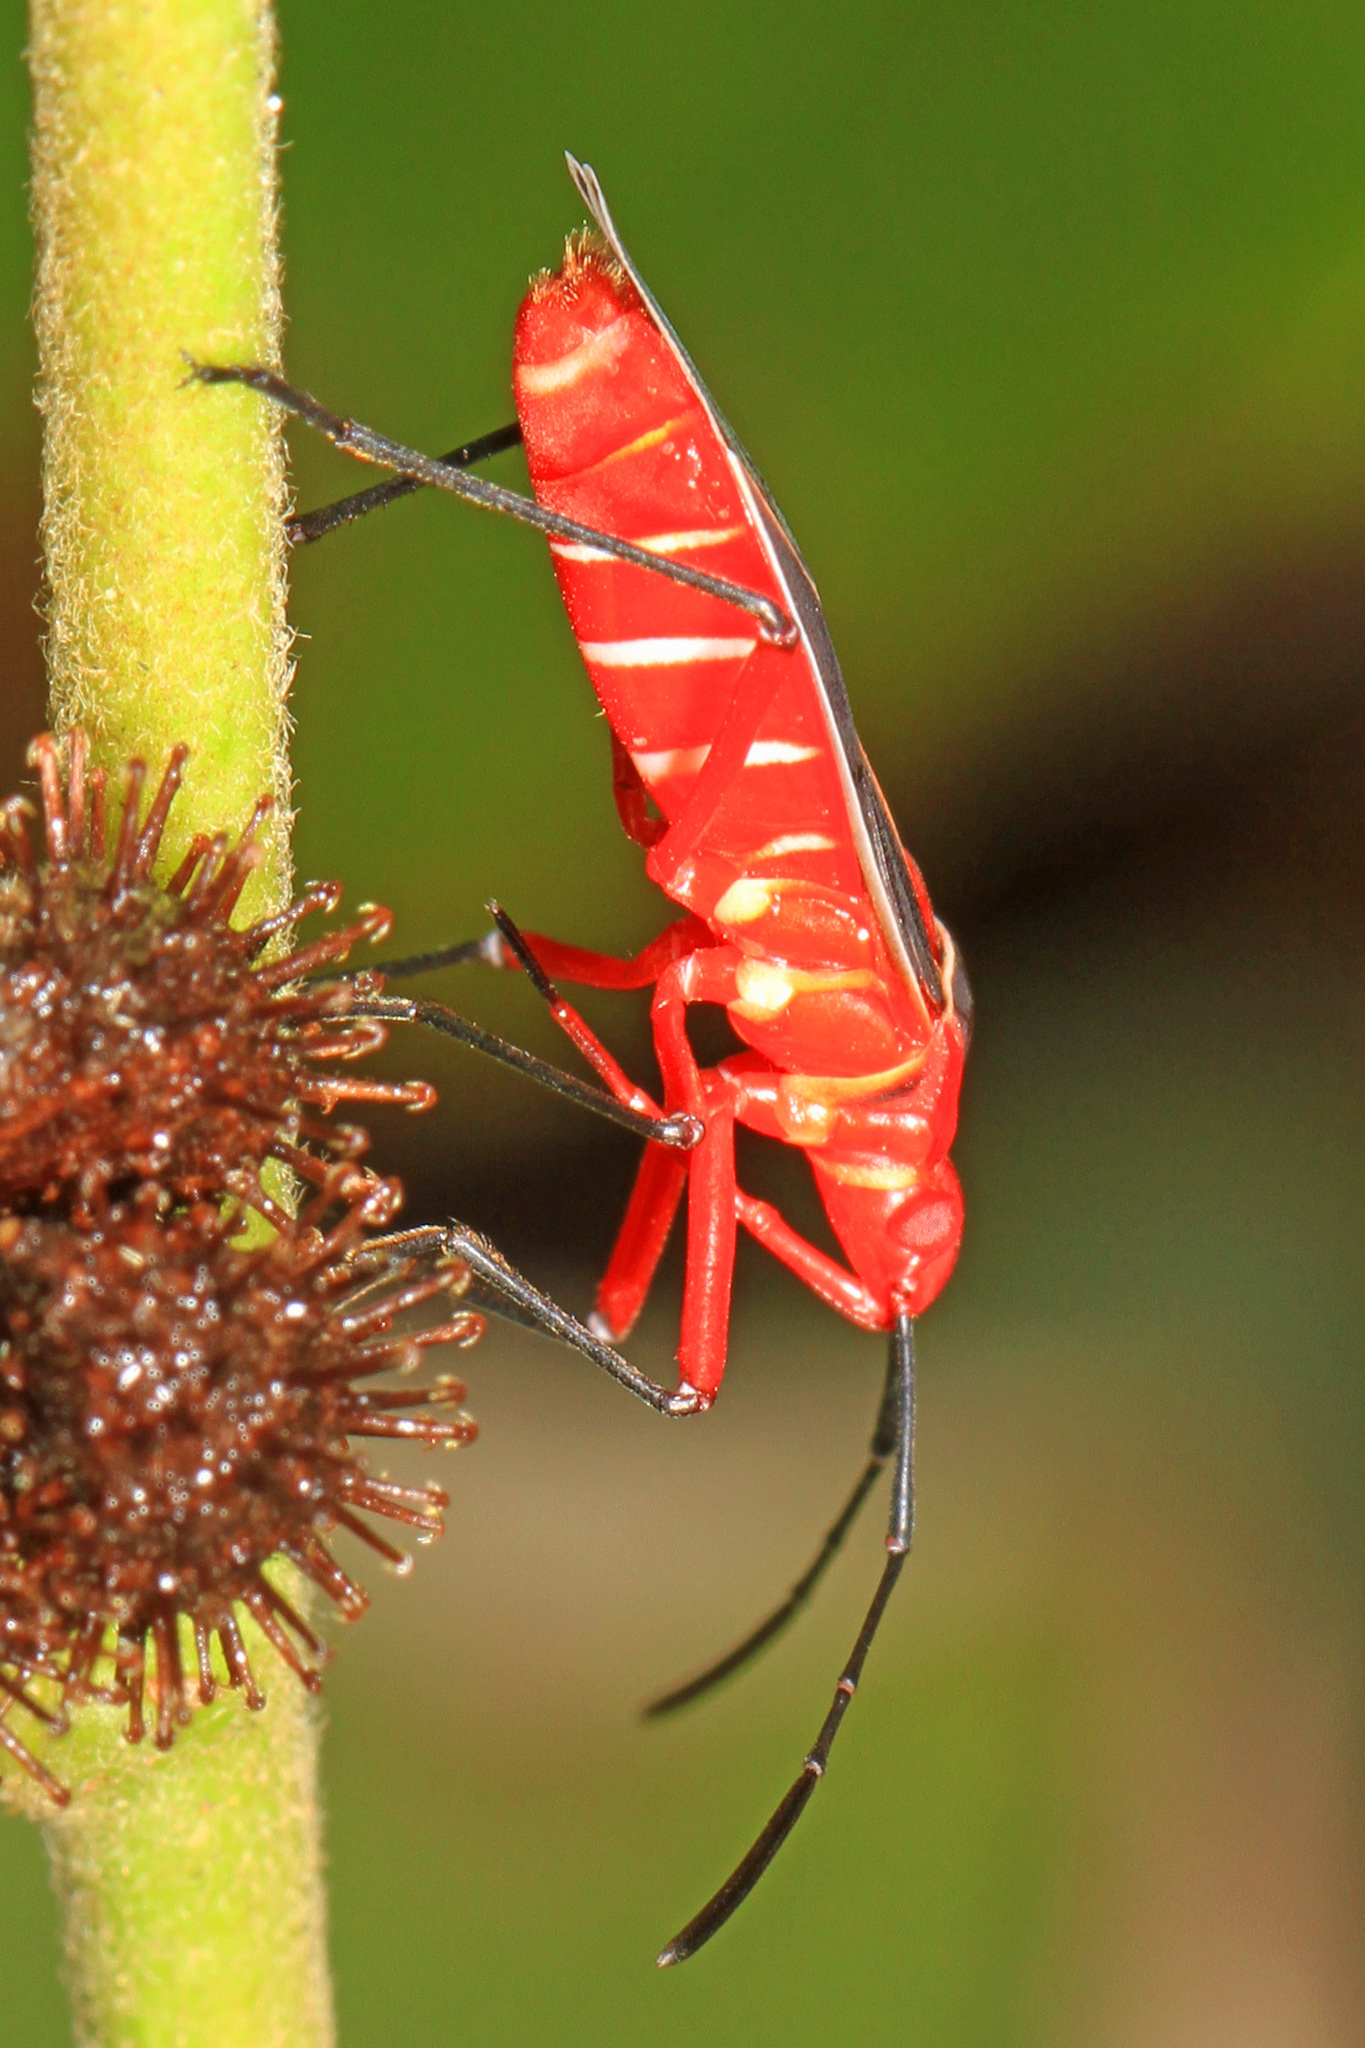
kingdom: Animalia
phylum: Arthropoda
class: Insecta
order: Hemiptera
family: Pyrrhocoridae
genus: Dysdercus
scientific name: Dysdercus suturellus
